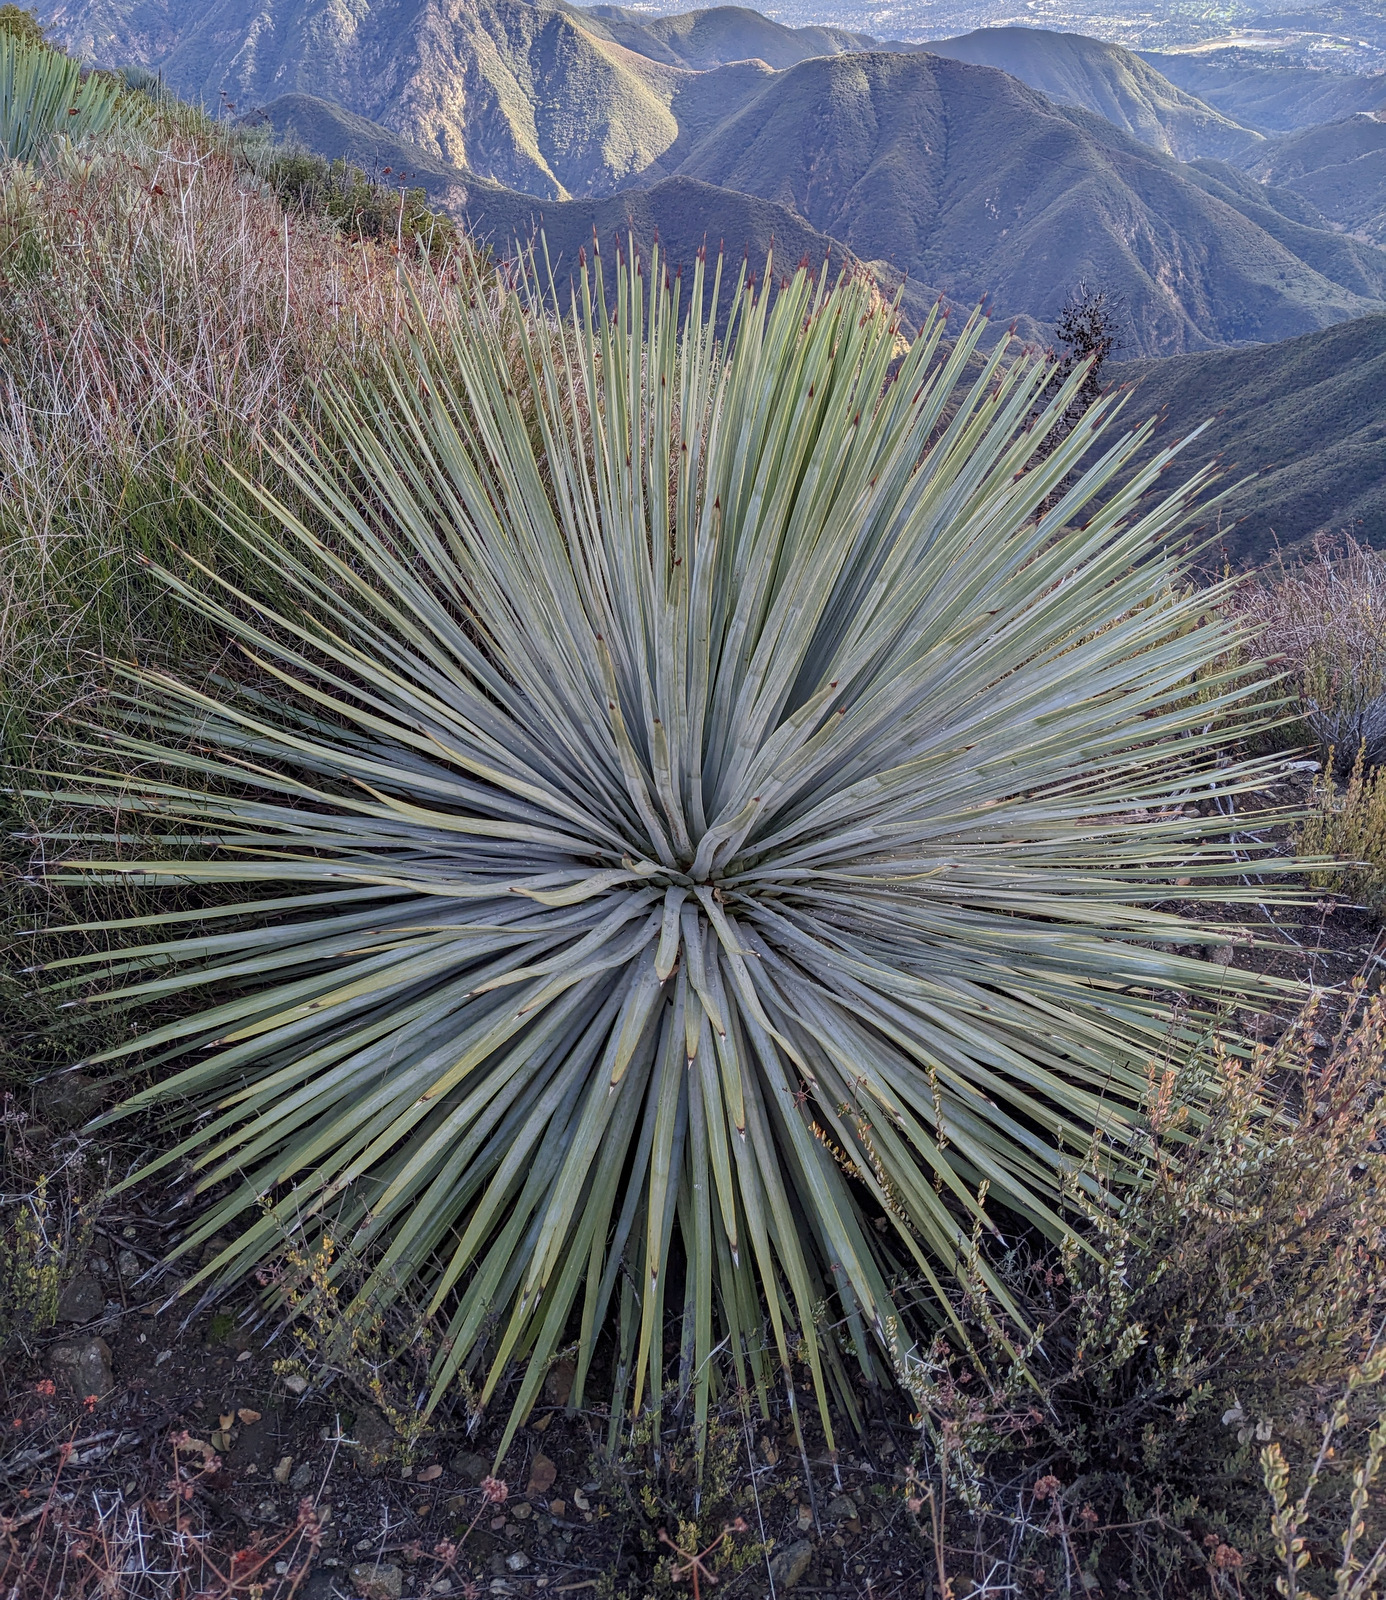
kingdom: Plantae
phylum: Tracheophyta
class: Liliopsida
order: Asparagales
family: Asparagaceae
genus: Hesperoyucca
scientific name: Hesperoyucca whipplei
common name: Our lord's-candle
